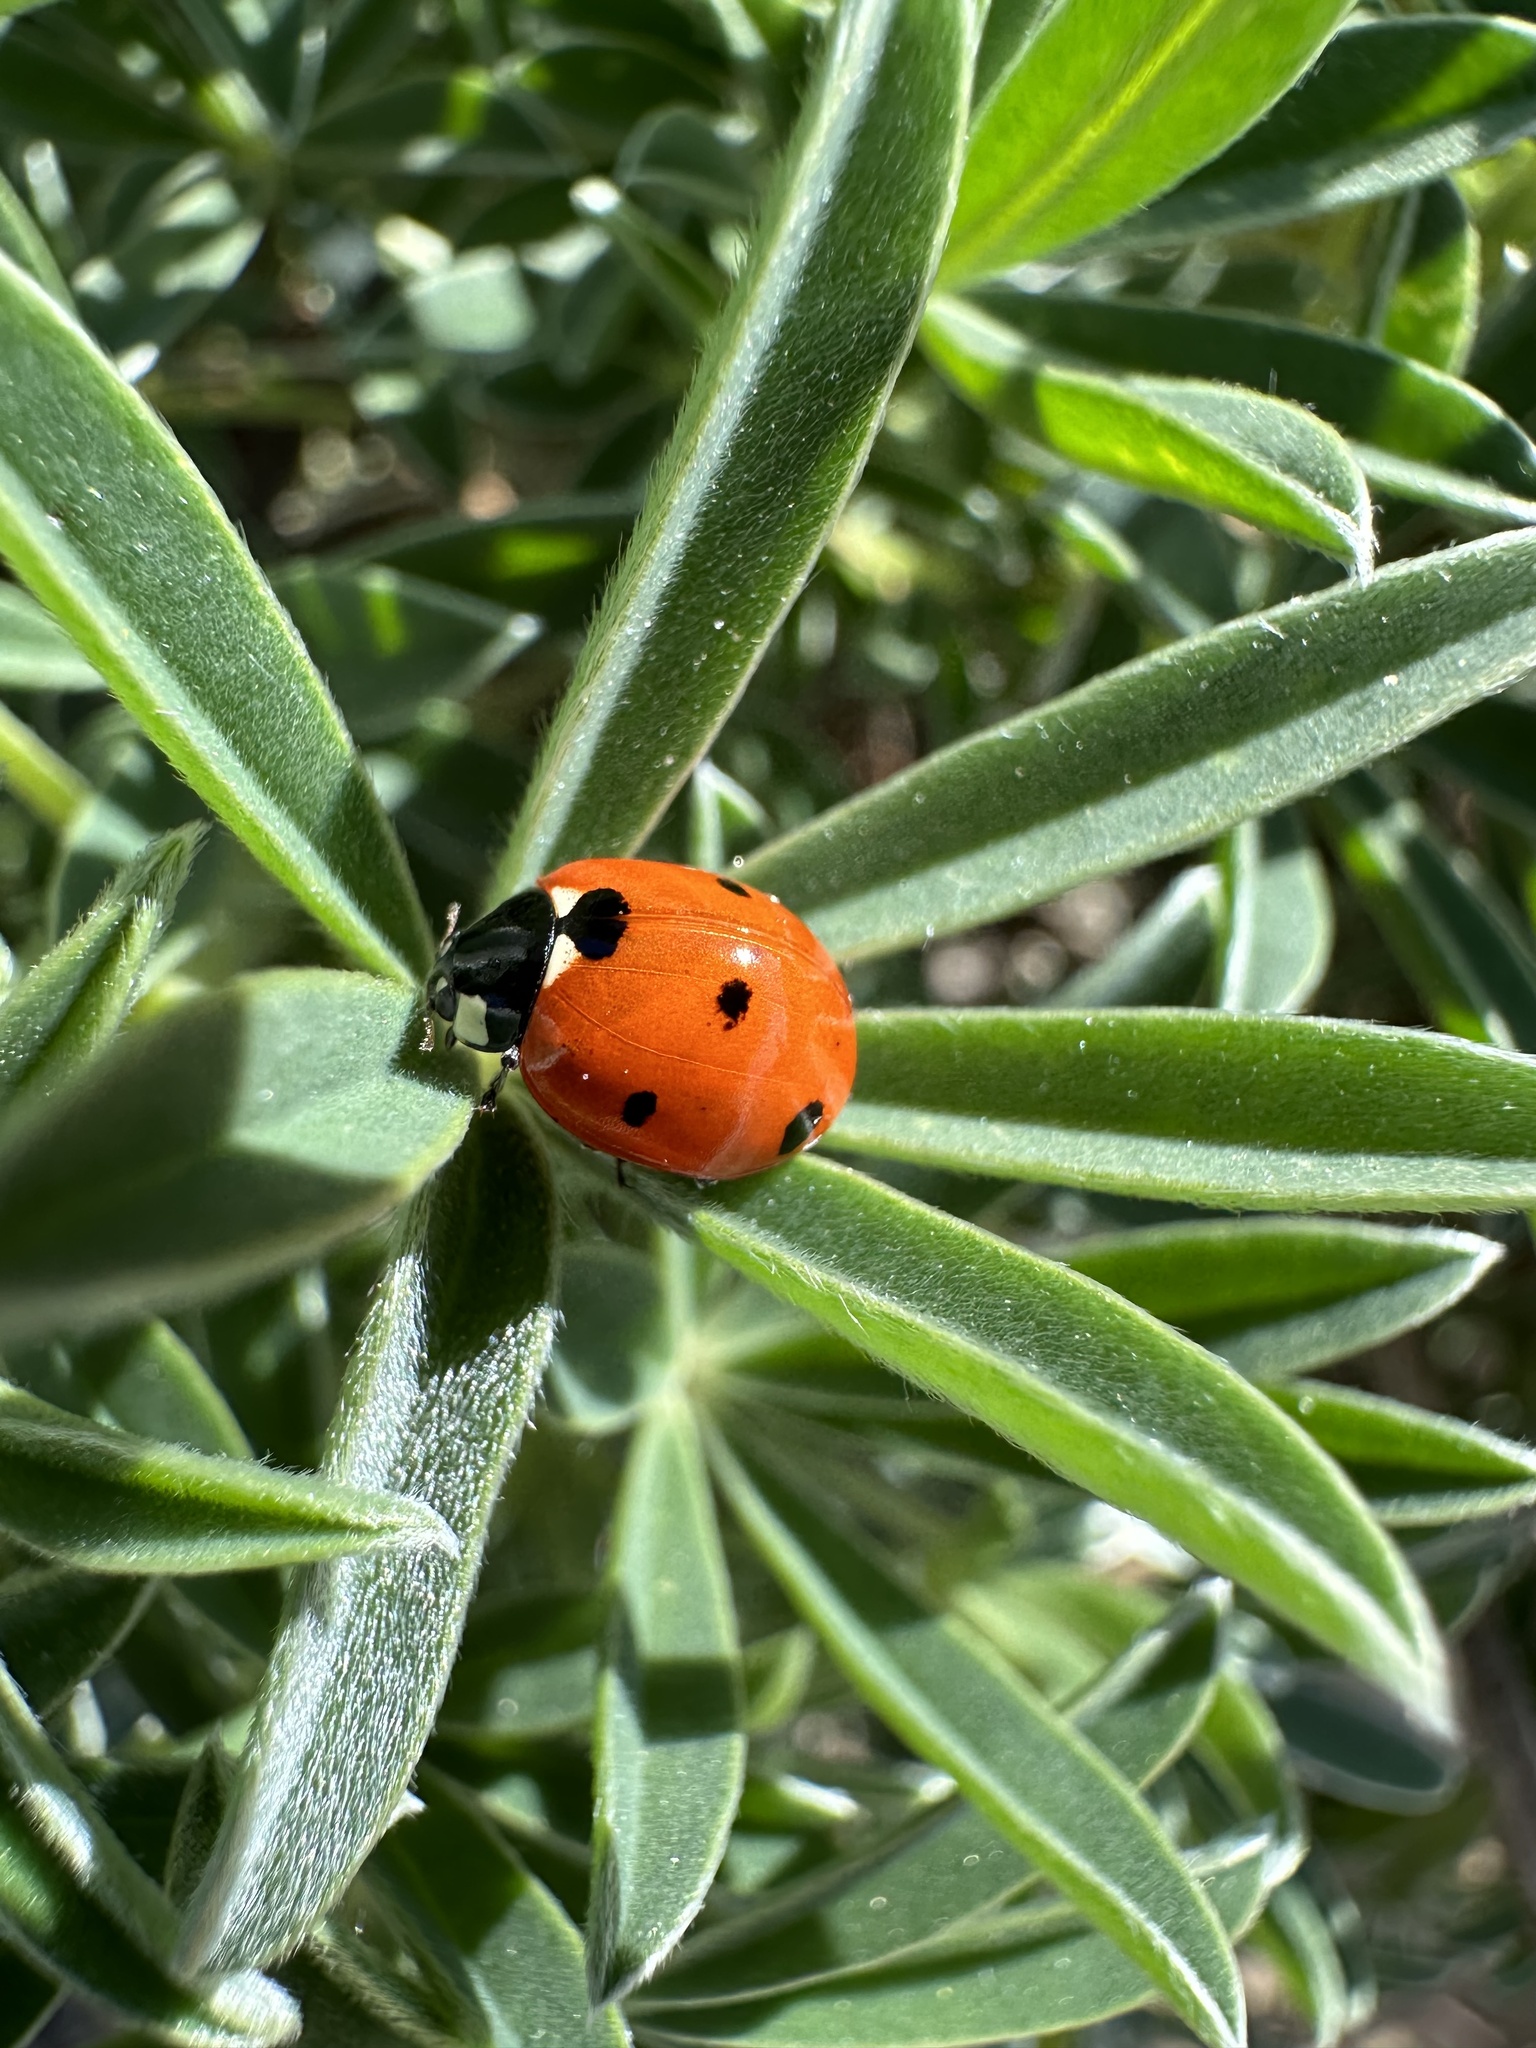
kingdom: Animalia
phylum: Arthropoda
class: Insecta
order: Coleoptera
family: Coccinellidae
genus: Coccinella
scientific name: Coccinella septempunctata
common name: Sevenspotted lady beetle
